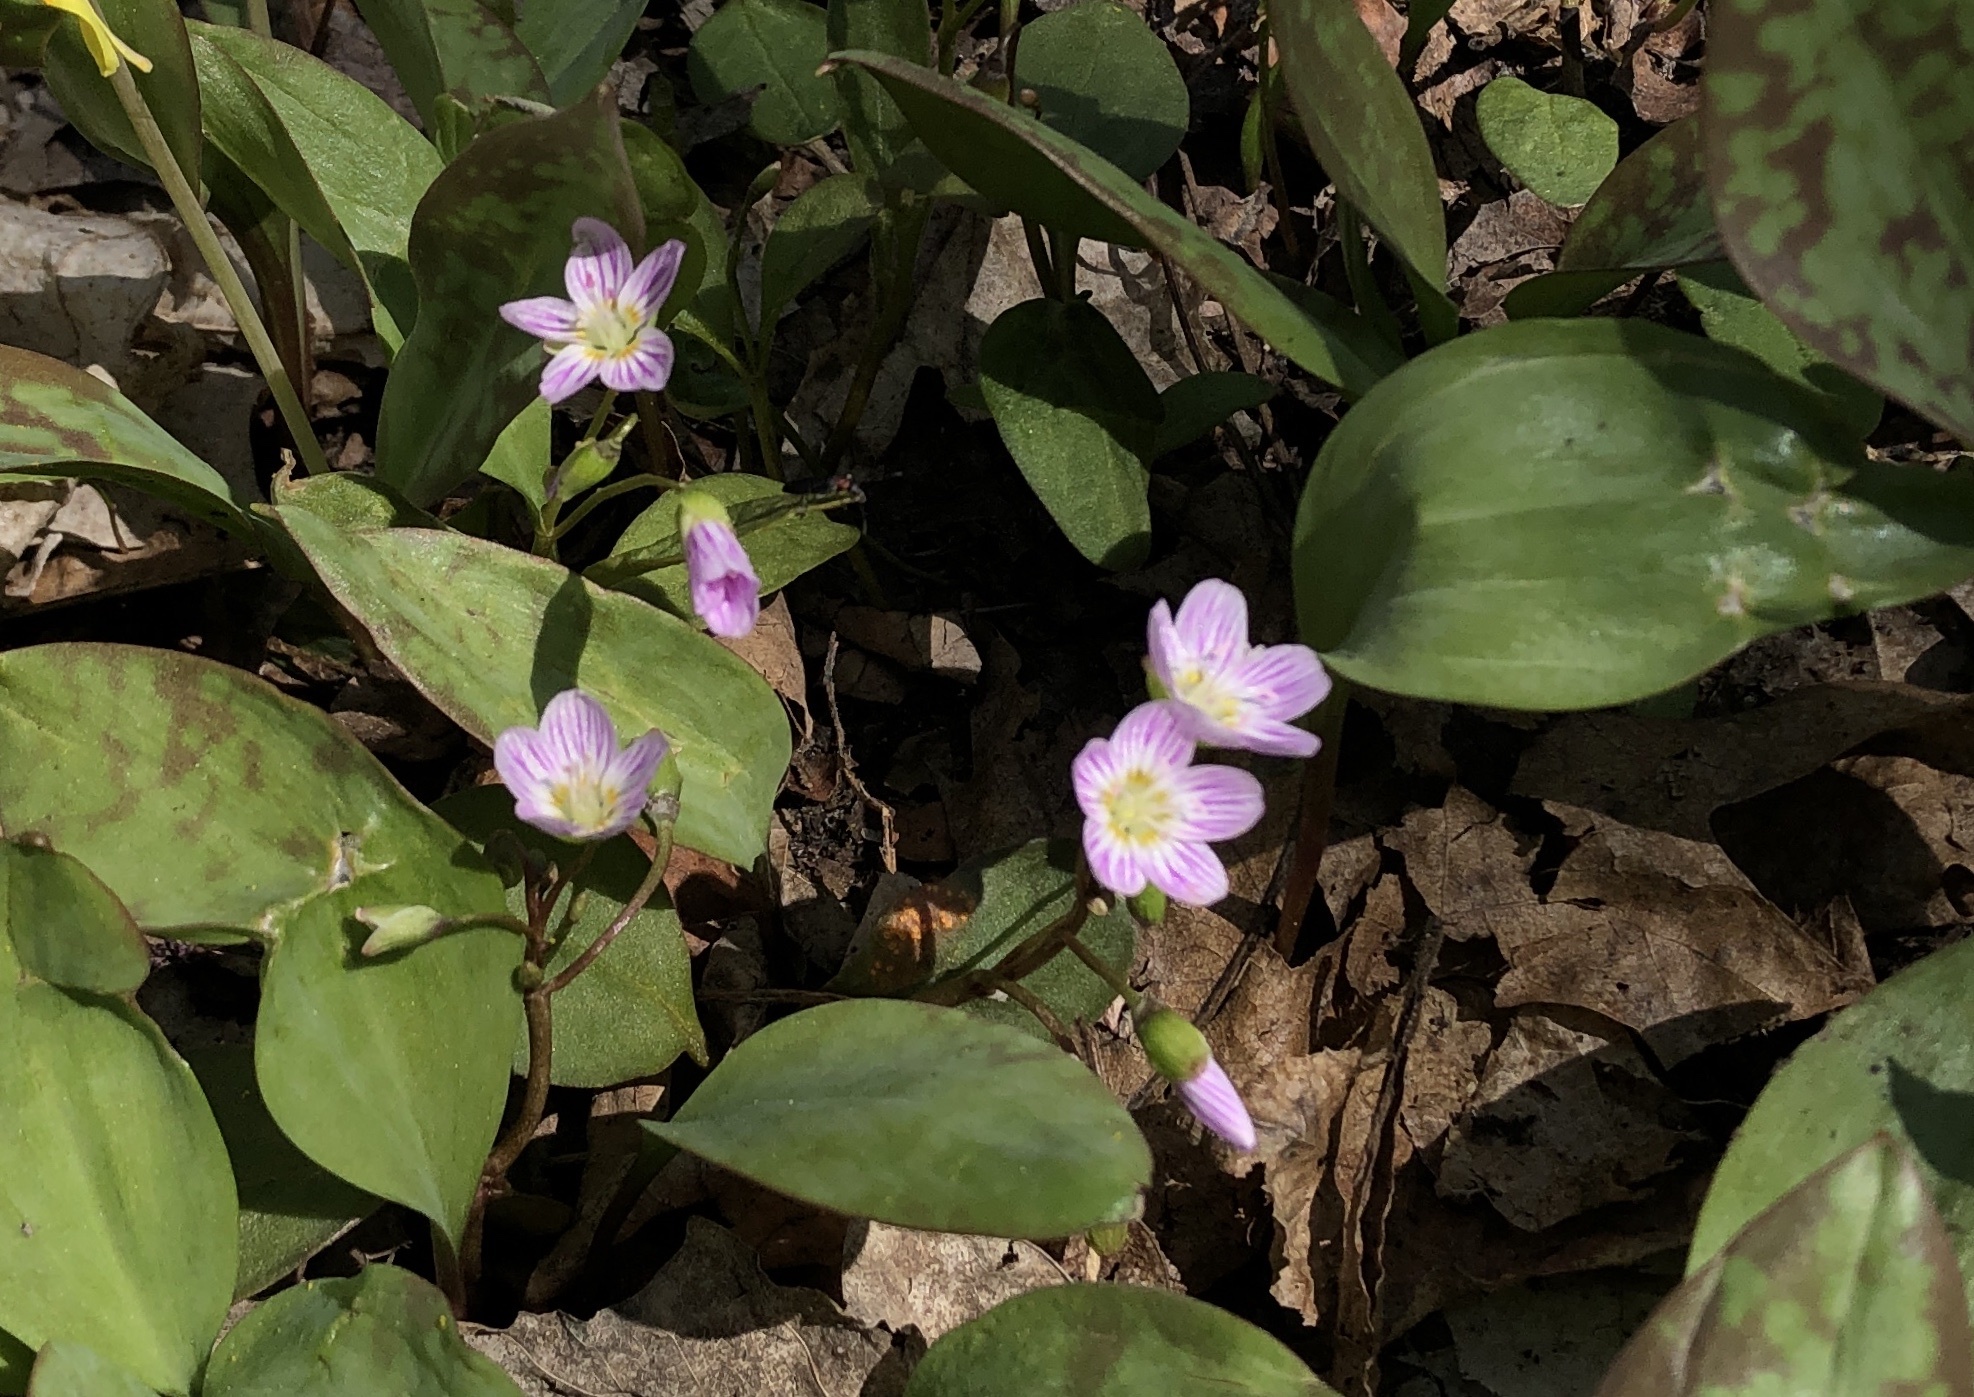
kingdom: Plantae
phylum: Tracheophyta
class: Magnoliopsida
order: Caryophyllales
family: Montiaceae
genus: Claytonia
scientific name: Claytonia caroliniana
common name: Carolina spring beauty
